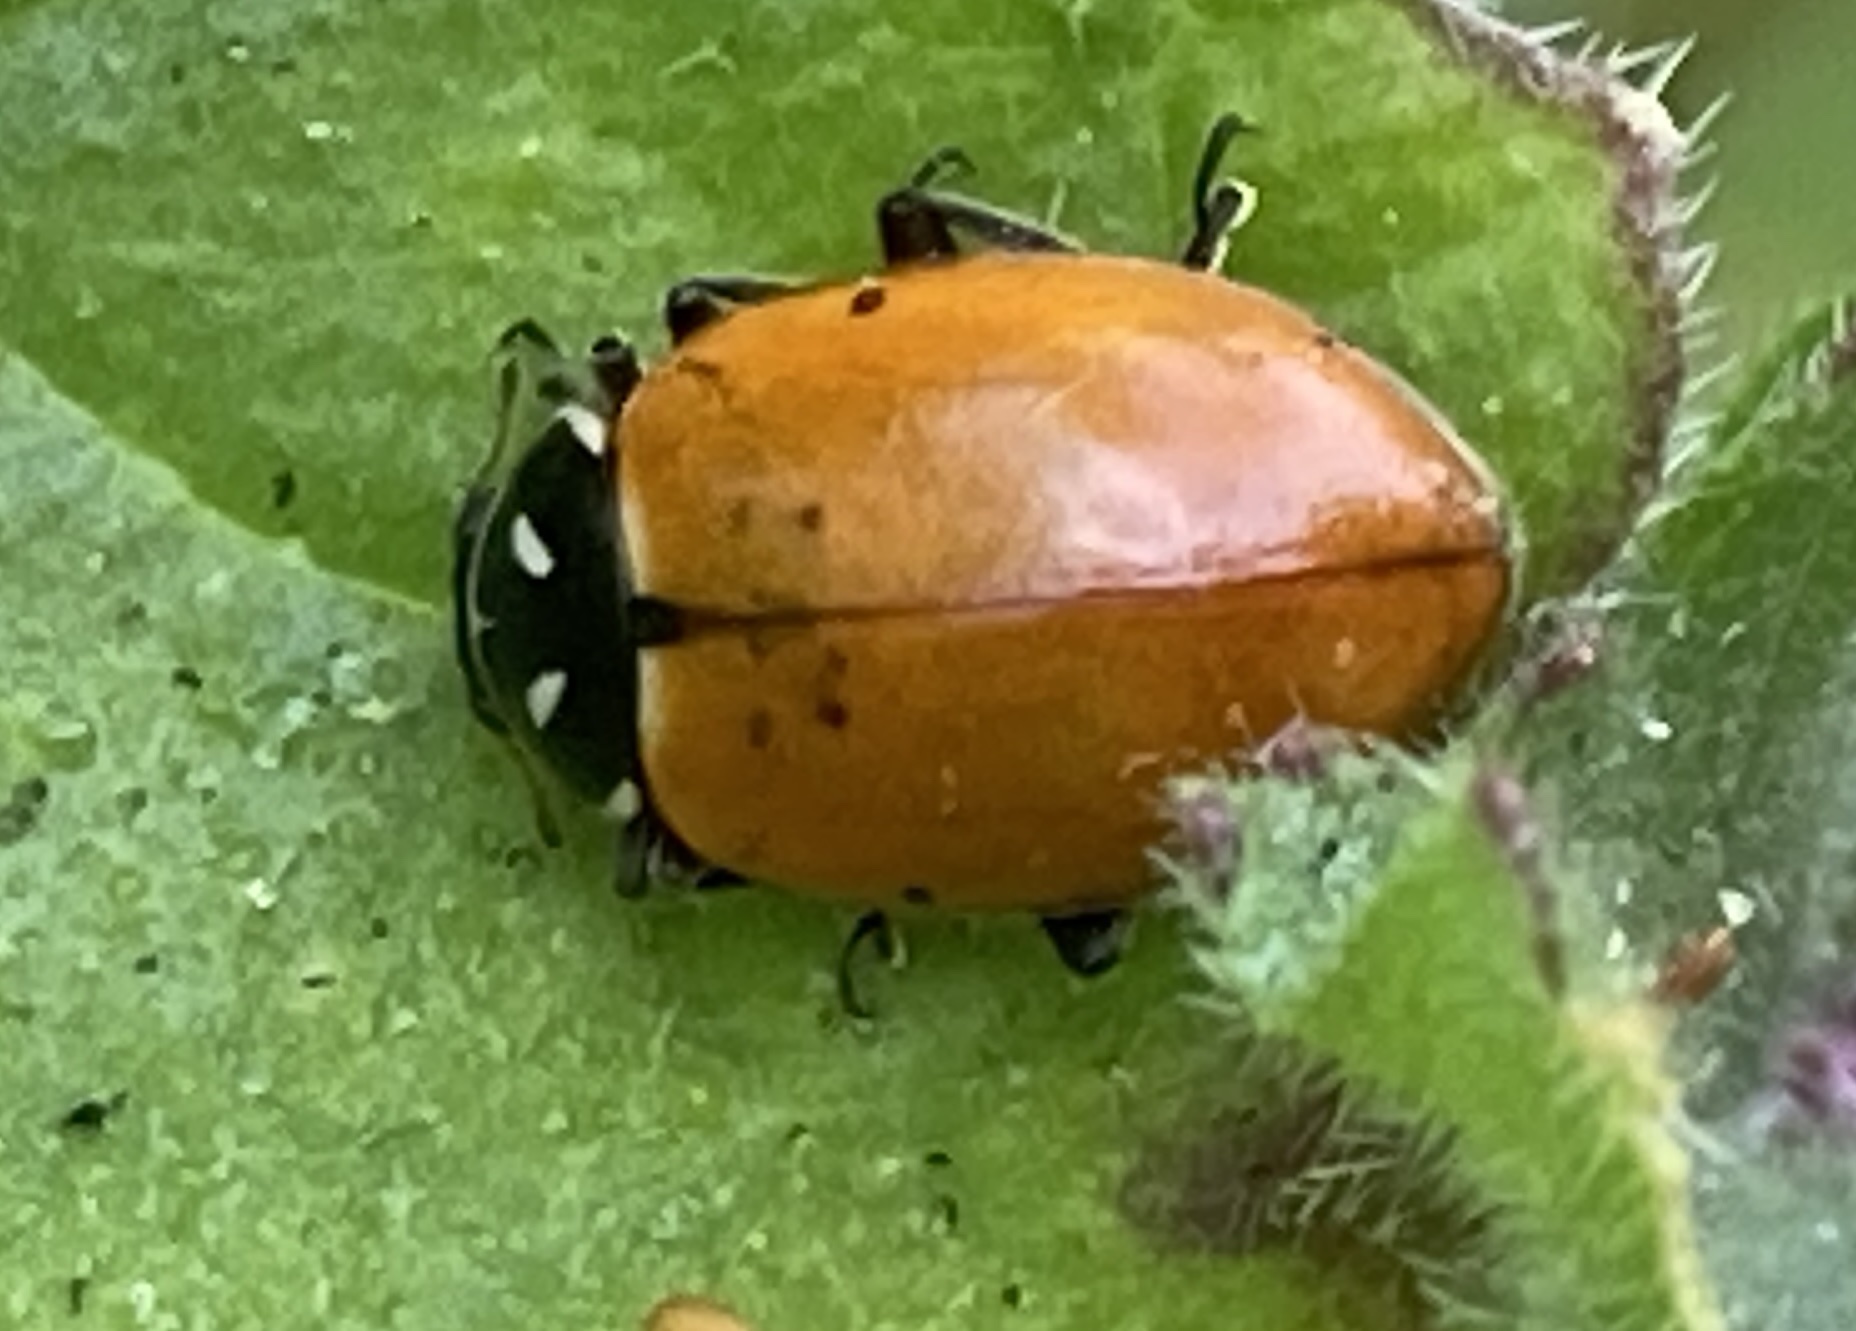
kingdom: Animalia
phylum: Arthropoda
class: Insecta
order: Coleoptera
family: Coccinellidae
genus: Hippodamia
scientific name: Hippodamia convergens
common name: Convergent lady beetle
